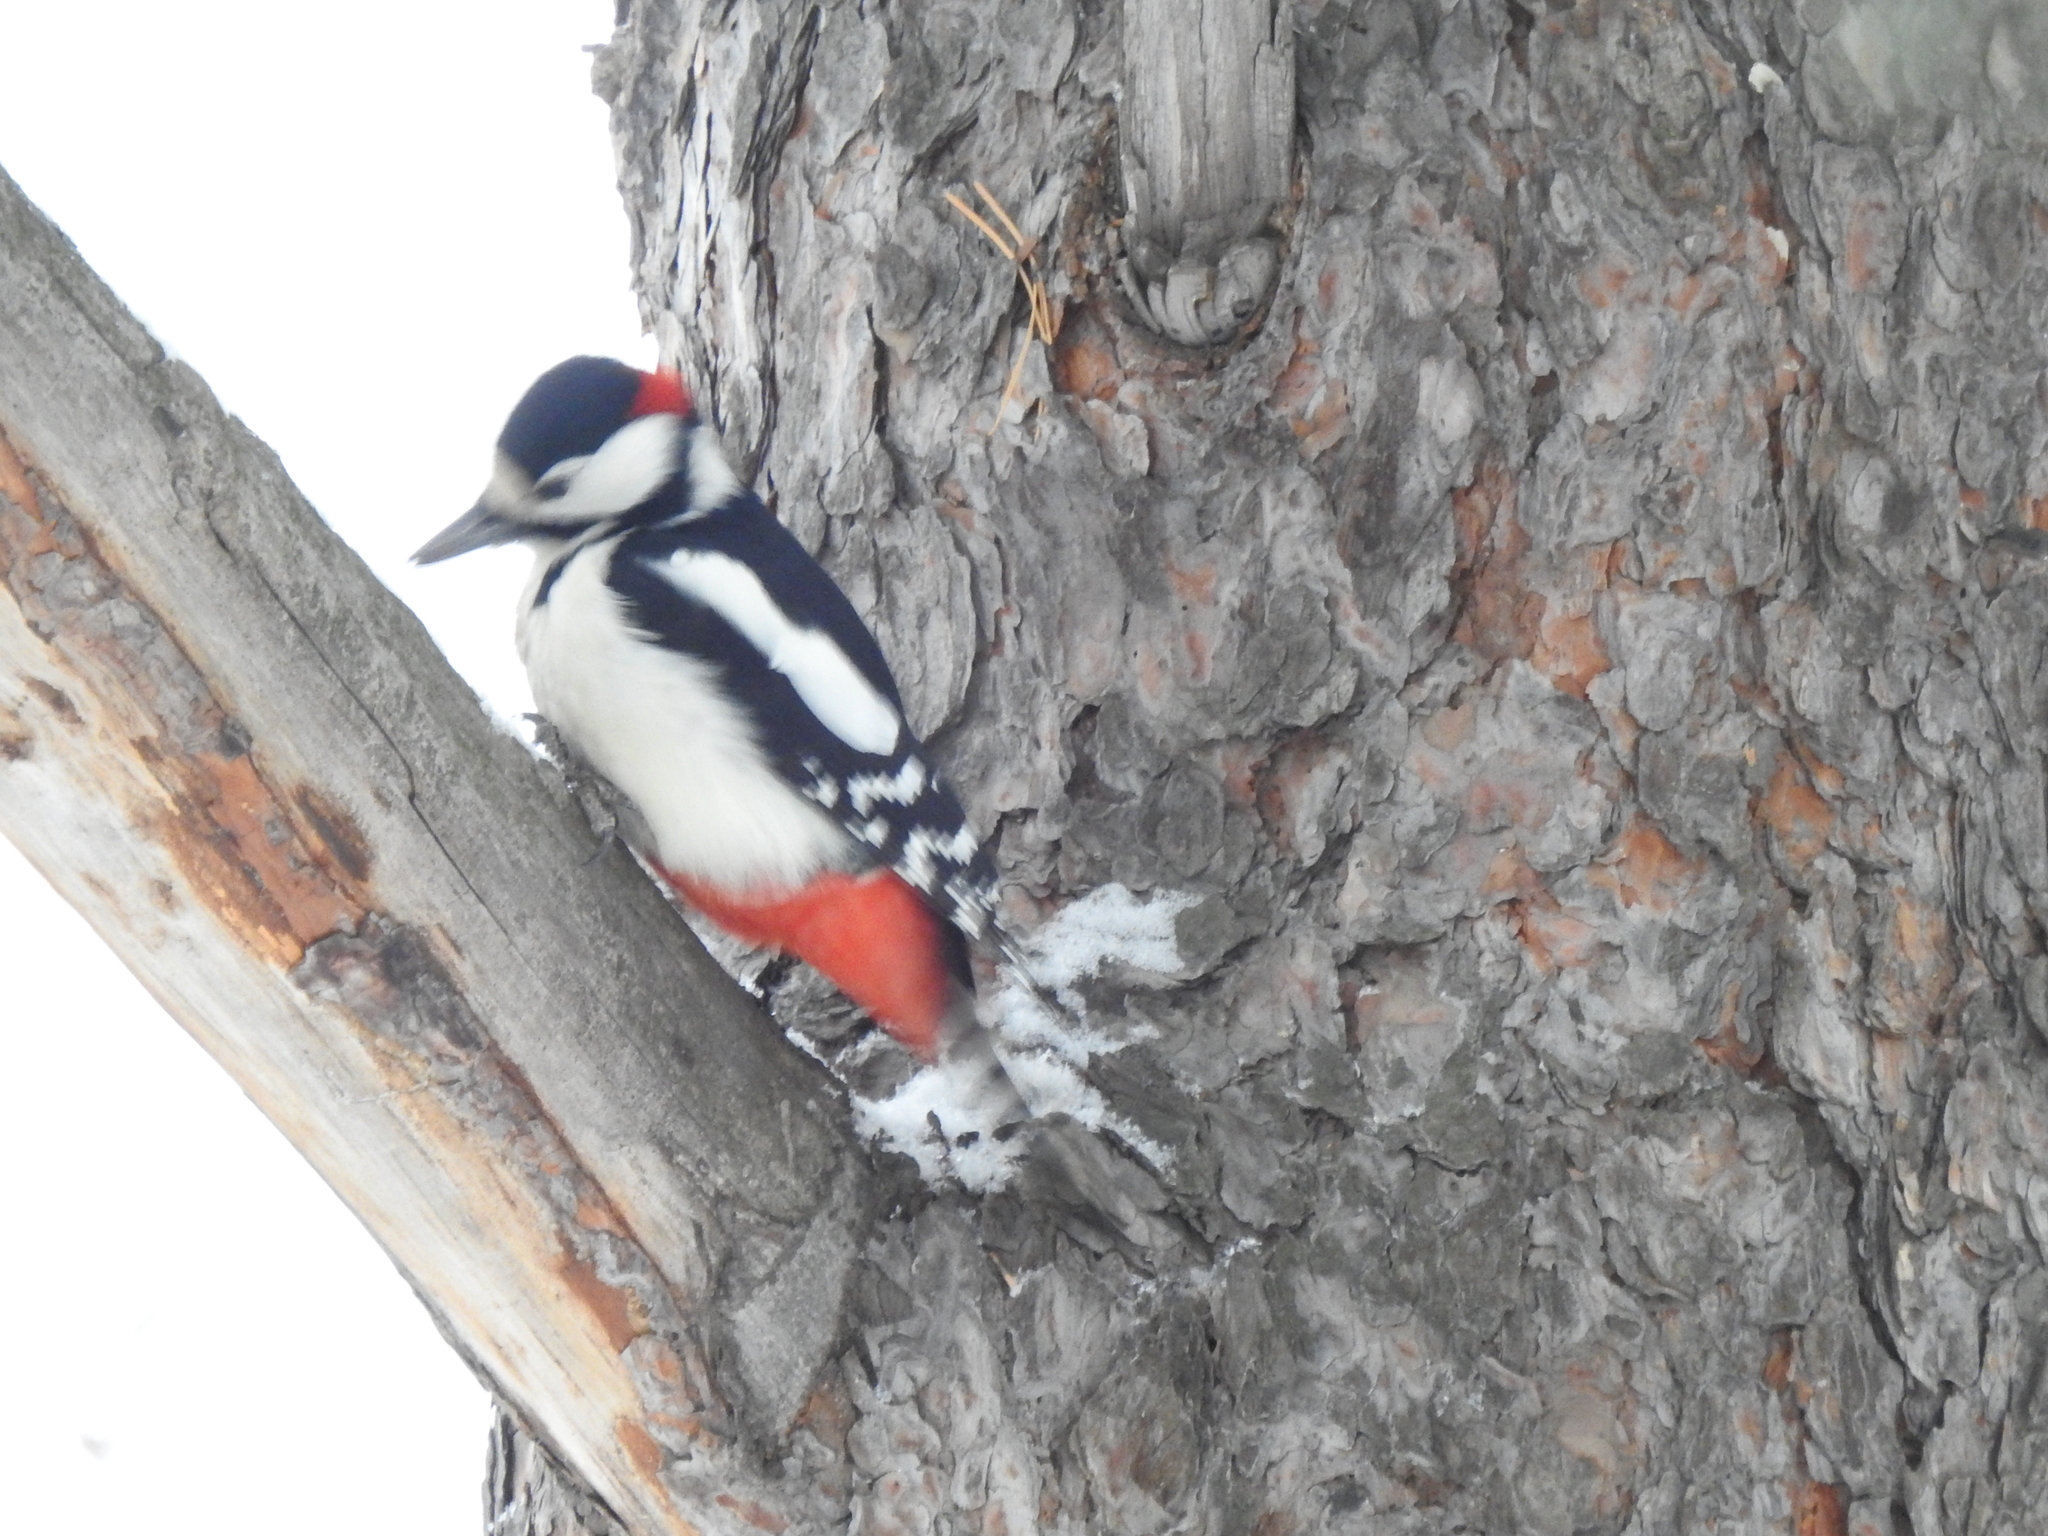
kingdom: Animalia
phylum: Chordata
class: Aves
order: Piciformes
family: Picidae
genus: Dendrocopos
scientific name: Dendrocopos major
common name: Great spotted woodpecker
